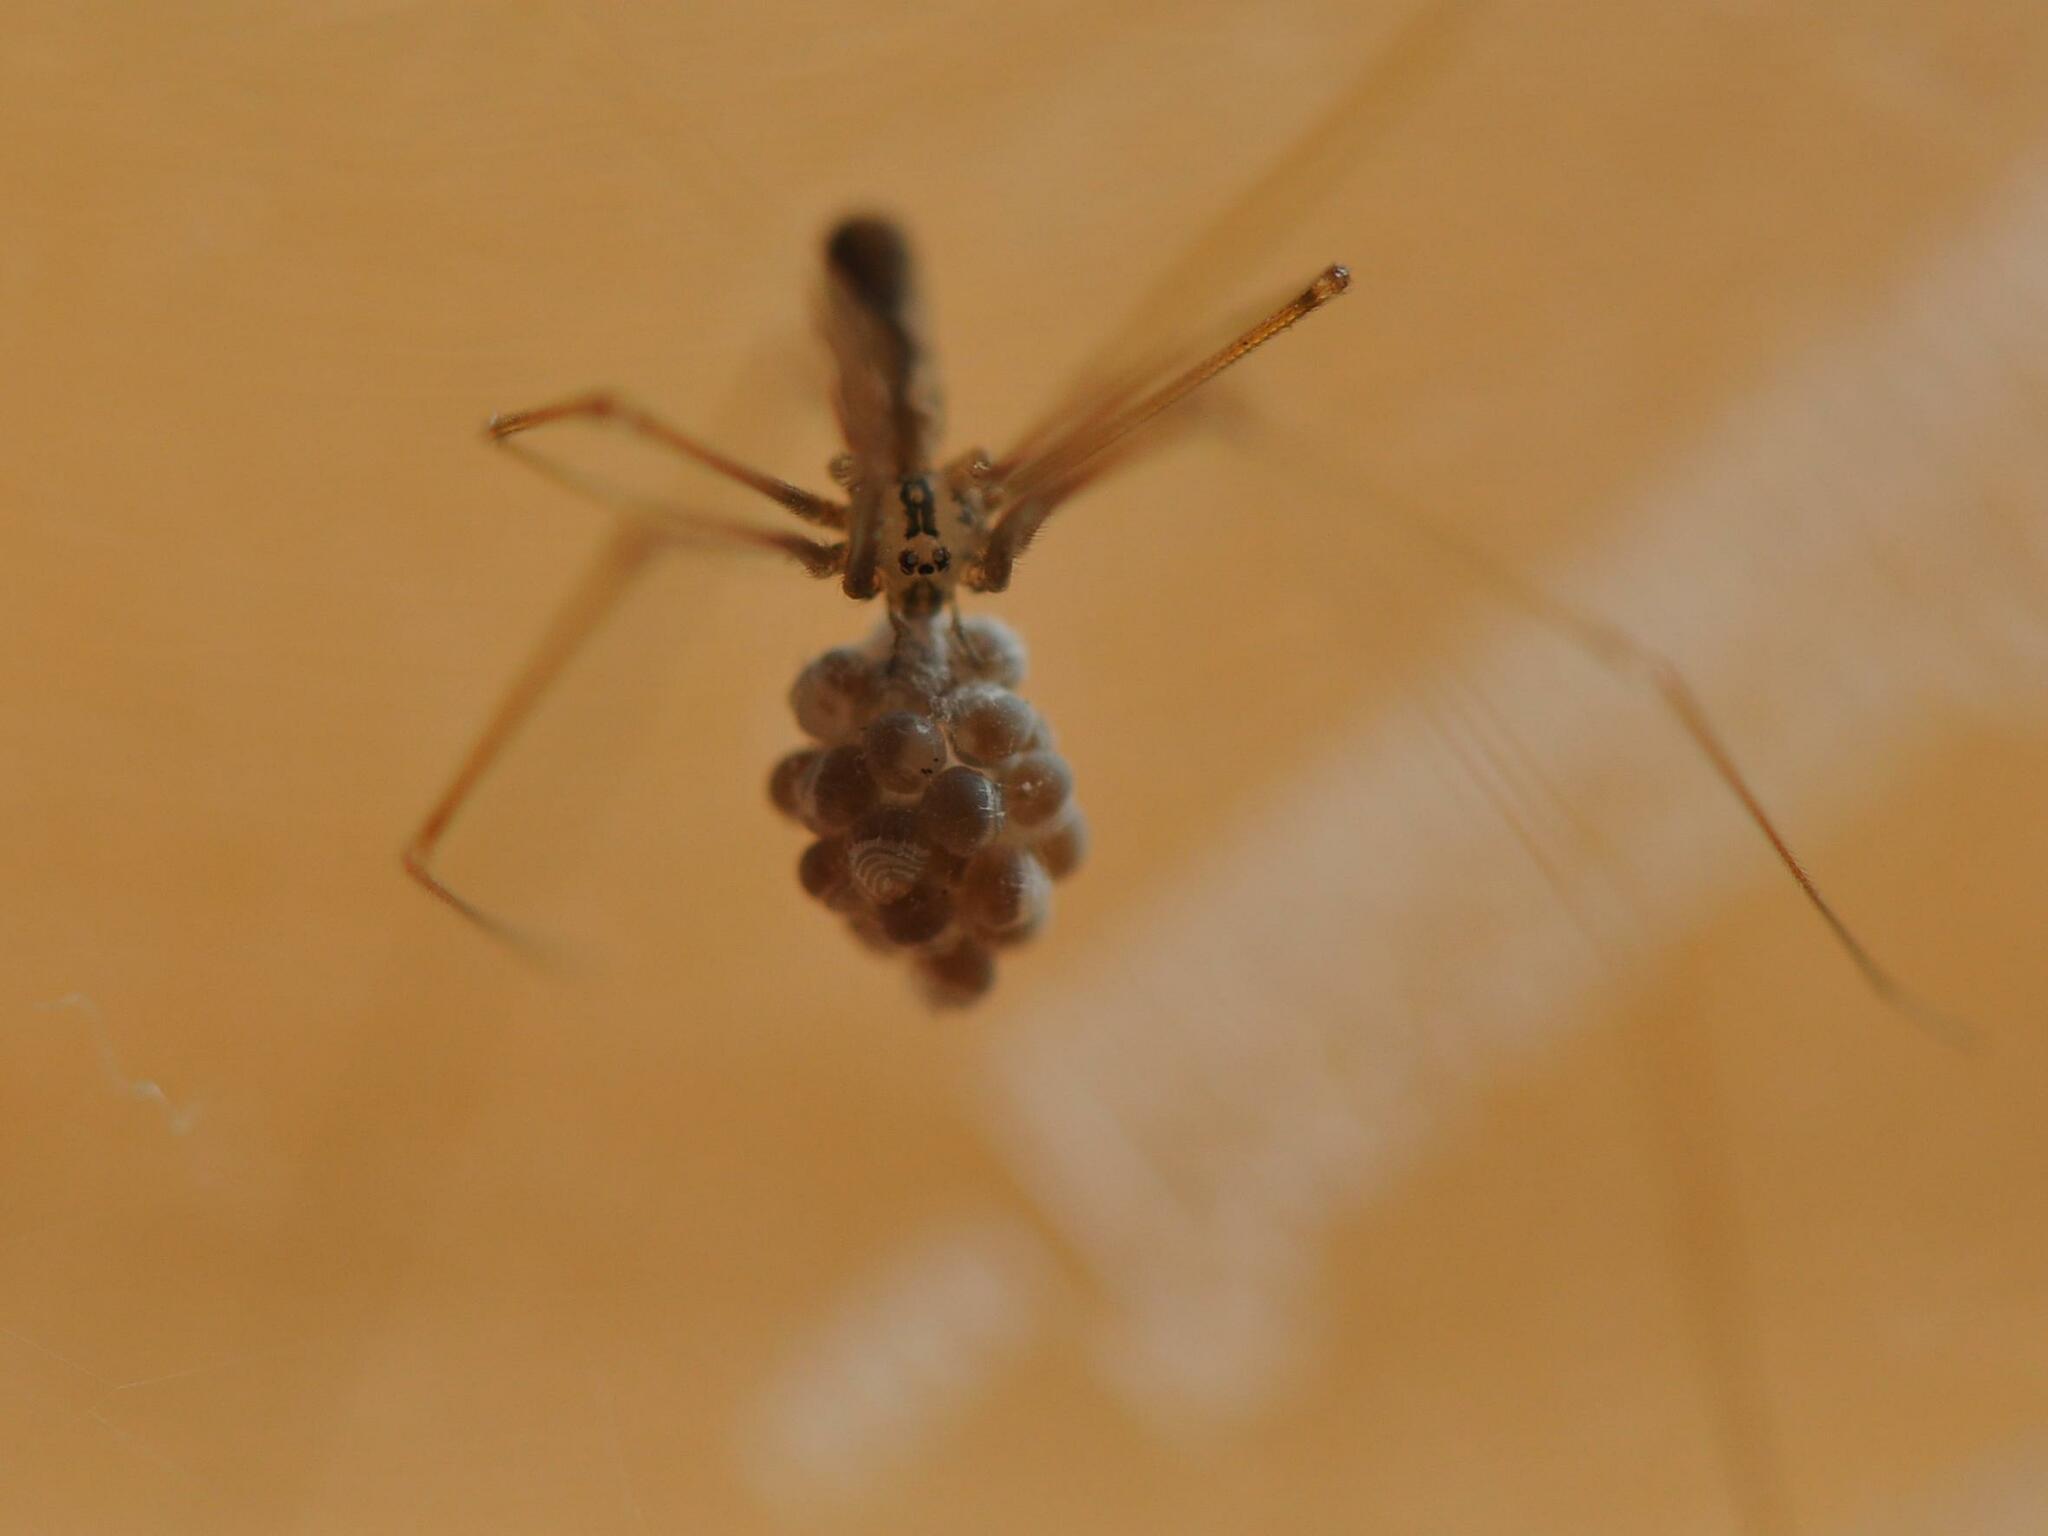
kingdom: Animalia
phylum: Arthropoda
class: Arachnida
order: Araneae
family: Pholcidae
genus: Pholcus
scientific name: Pholcus opilionoides
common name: Daddylongleg spider
